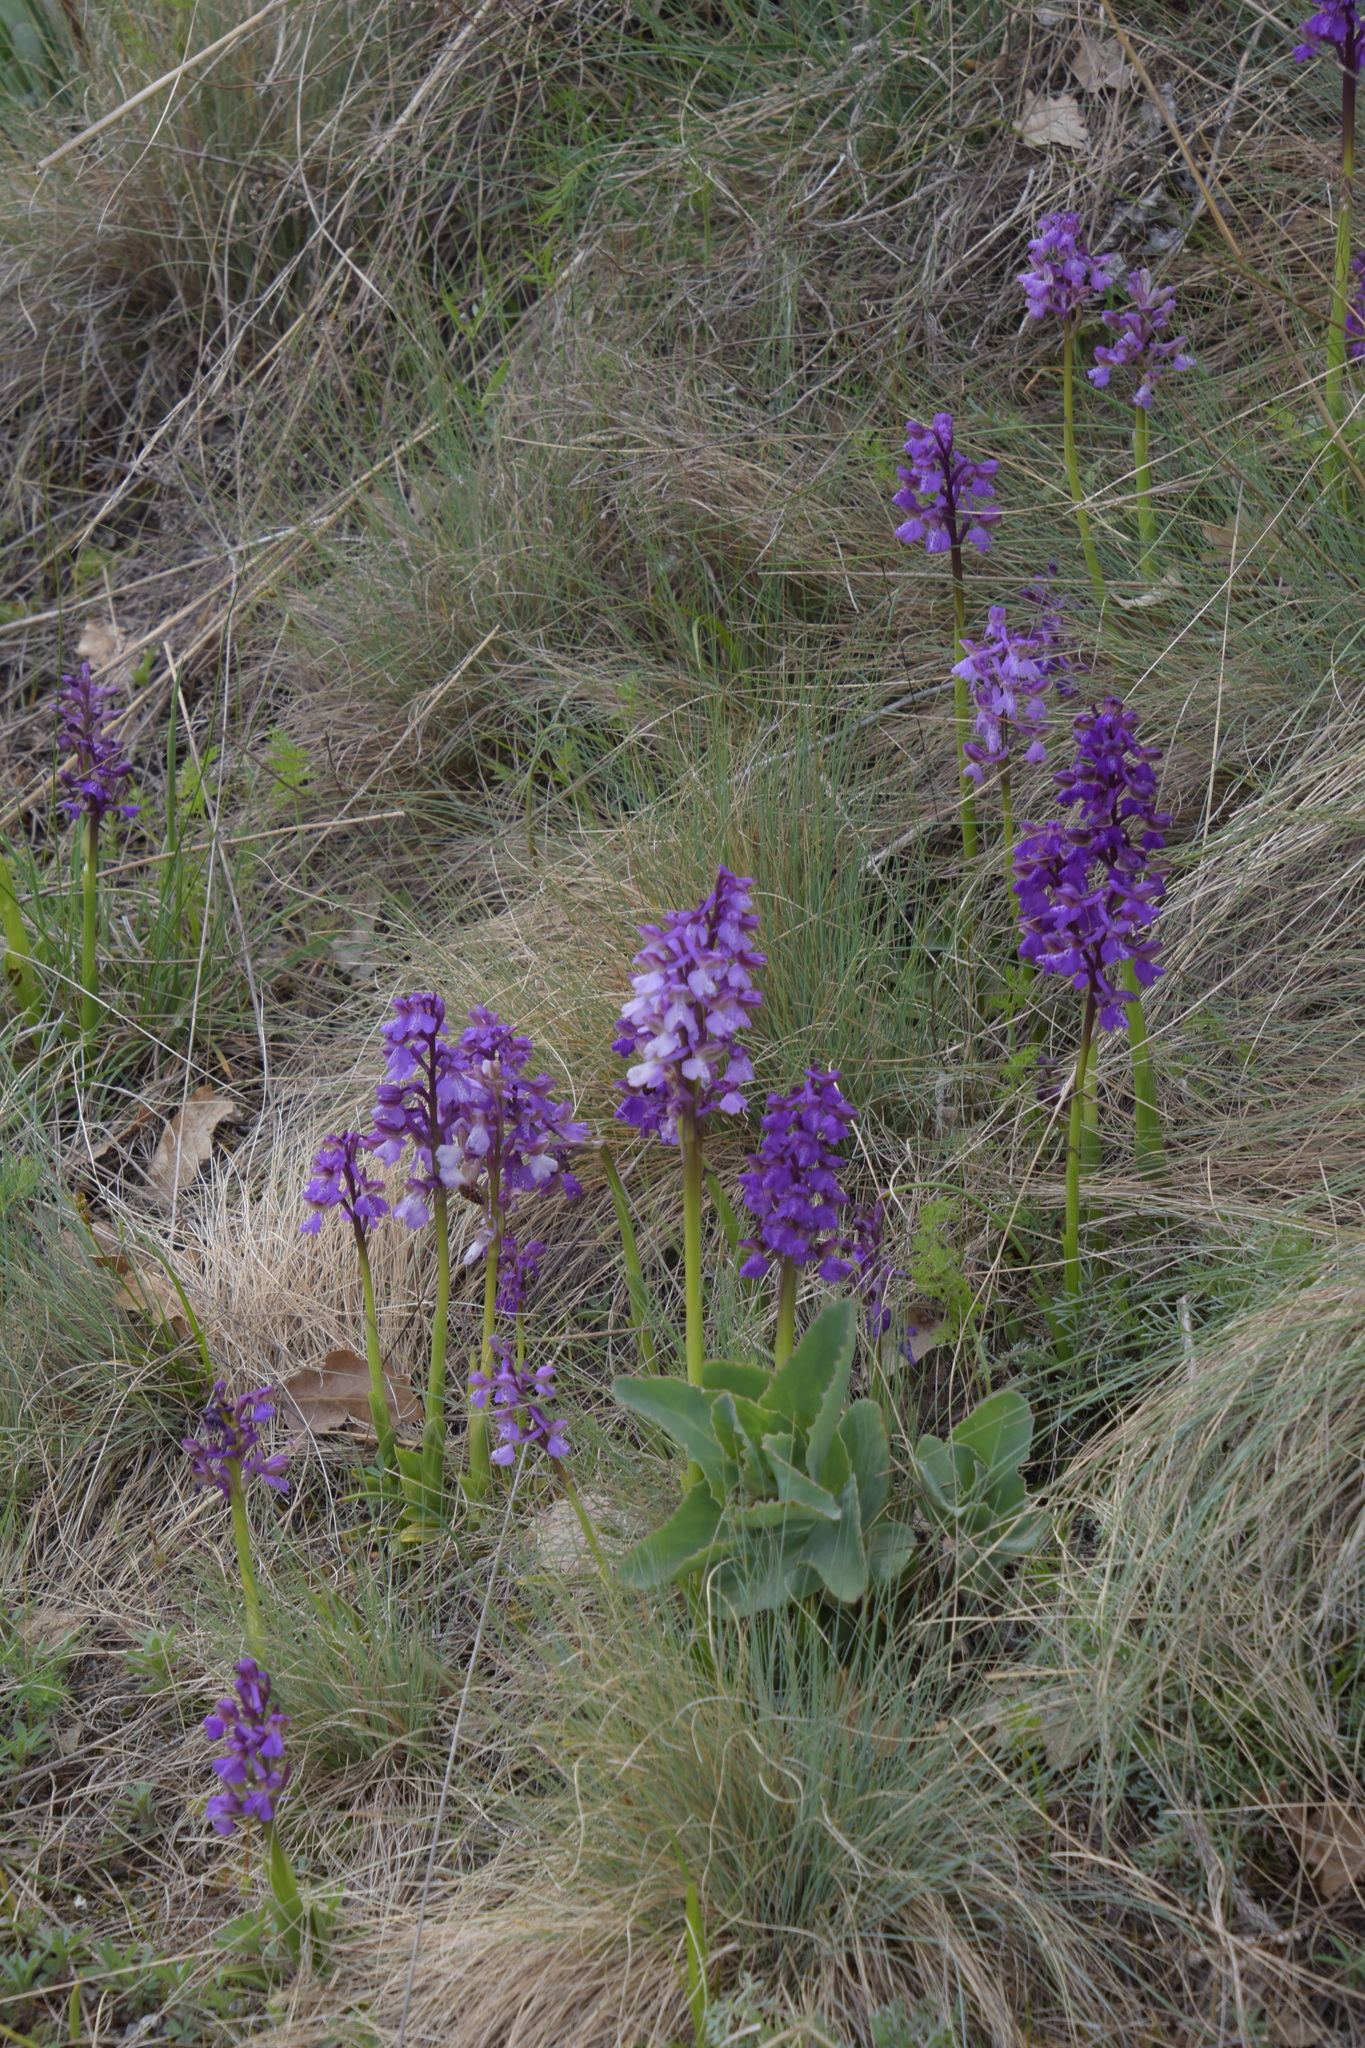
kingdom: Plantae
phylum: Tracheophyta
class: Liliopsida
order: Asparagales
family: Orchidaceae
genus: Anacamptis
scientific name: Anacamptis morio
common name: Green-winged orchid
